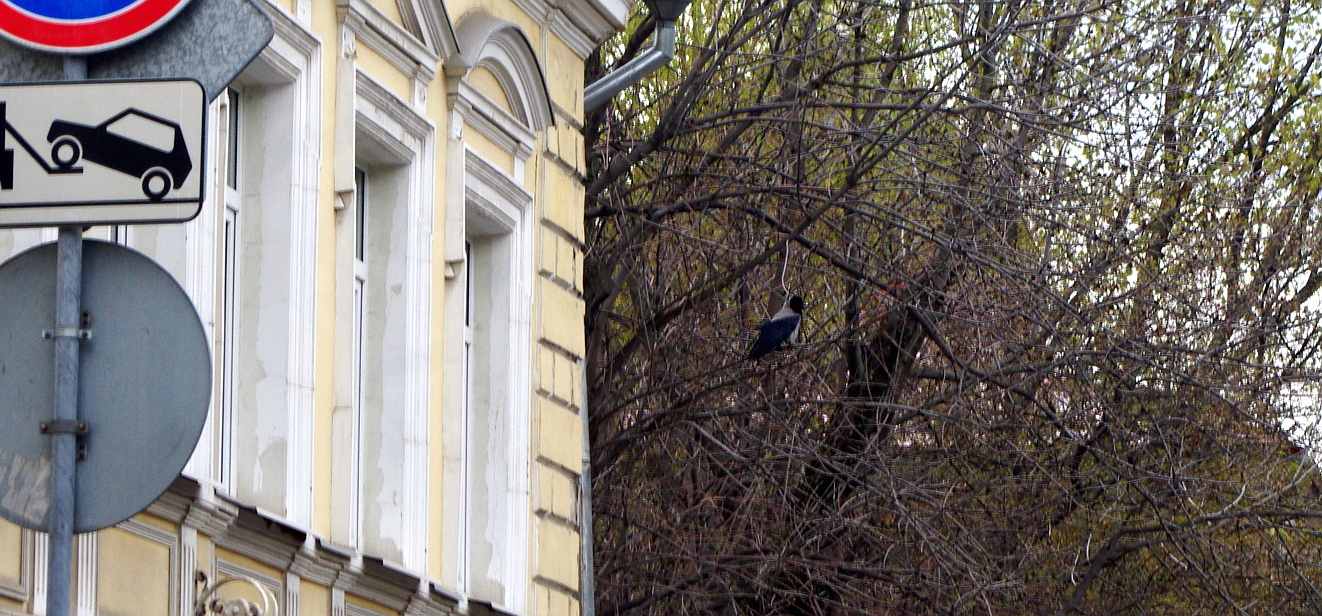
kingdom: Animalia
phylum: Chordata
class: Aves
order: Passeriformes
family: Corvidae
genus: Corvus
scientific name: Corvus cornix
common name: Hooded crow
